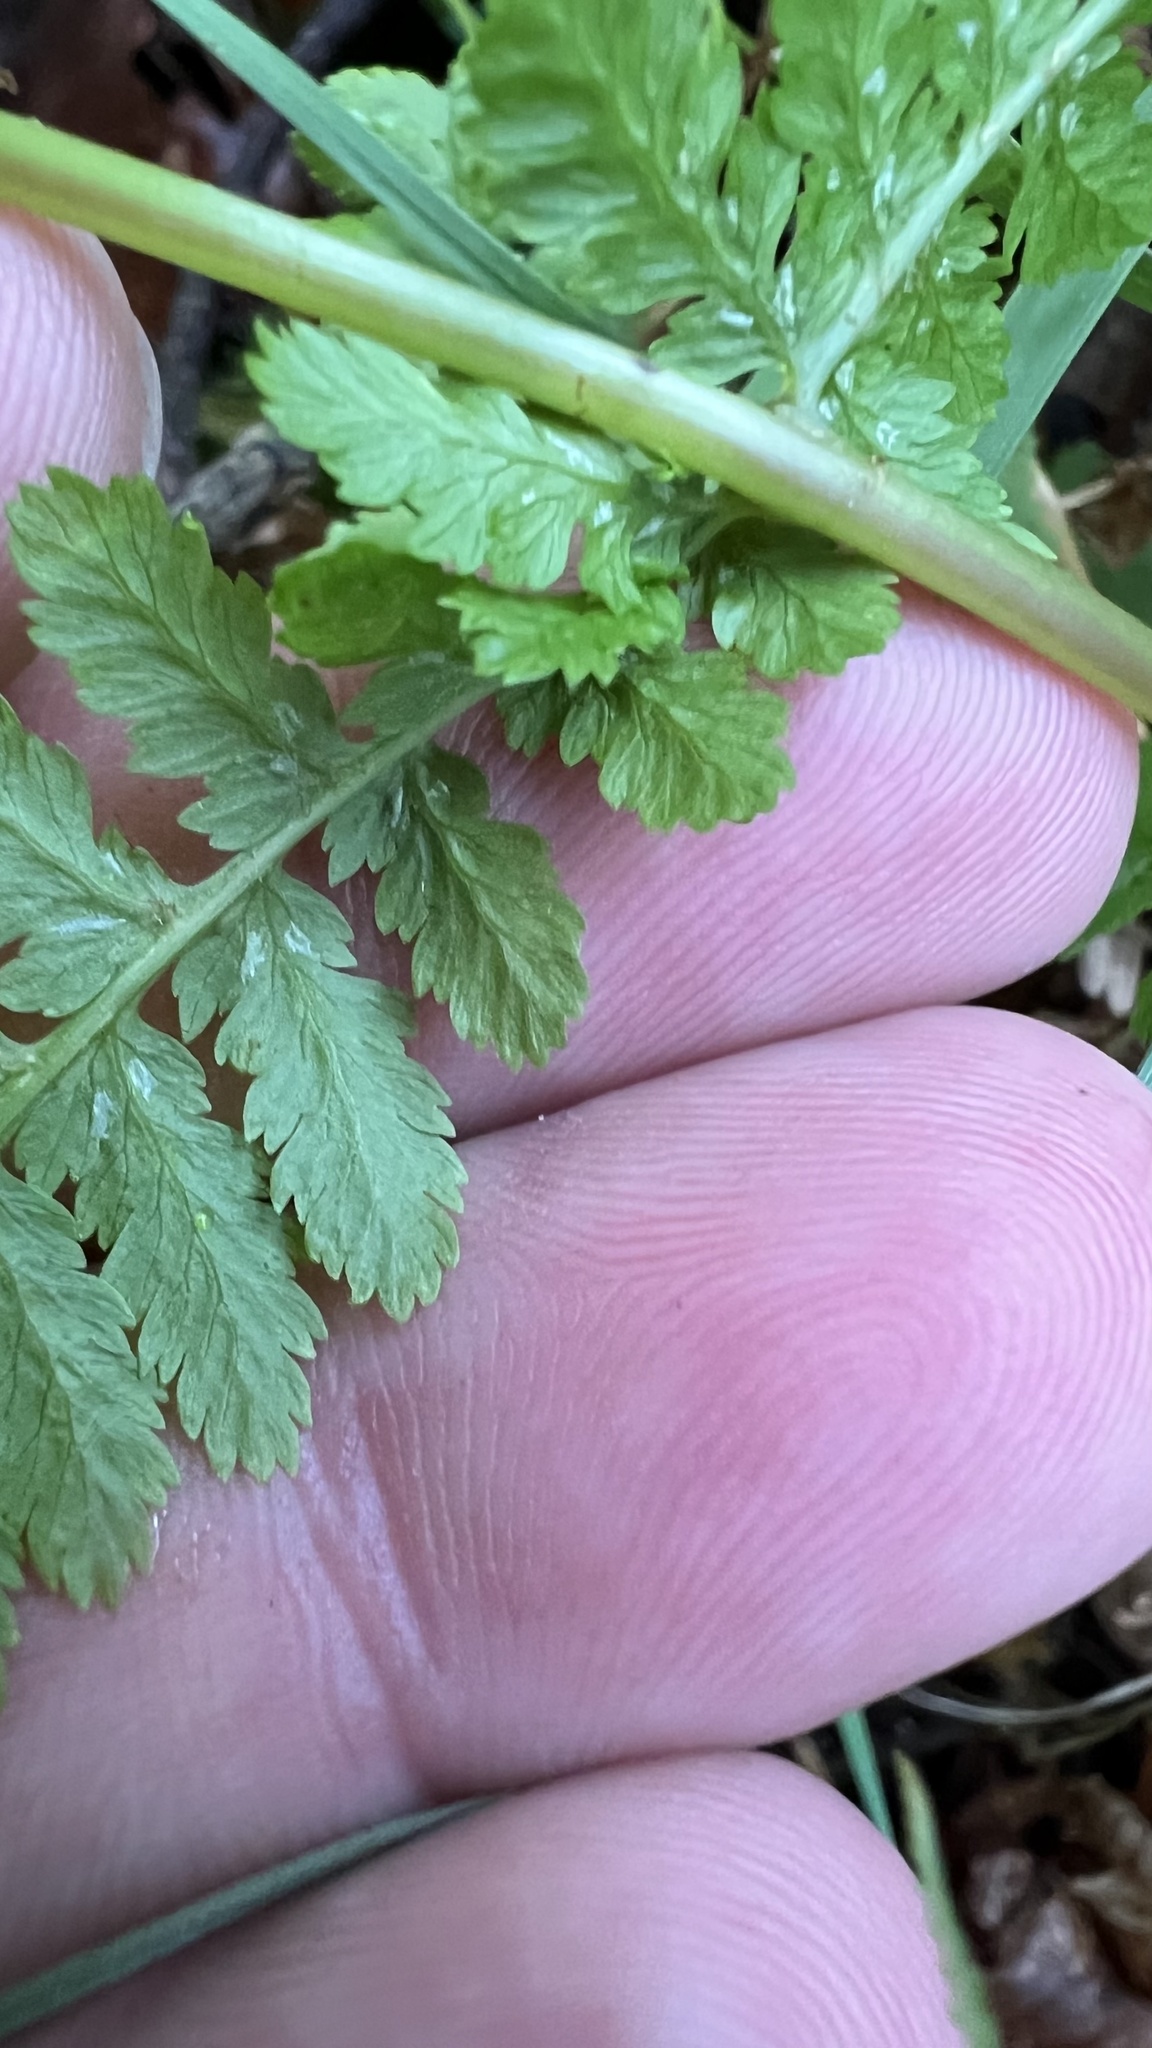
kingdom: Plantae
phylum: Tracheophyta
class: Polypodiopsida
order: Polypodiales
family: Athyriaceae
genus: Athyrium
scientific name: Athyrium filix-femina
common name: Lady fern
